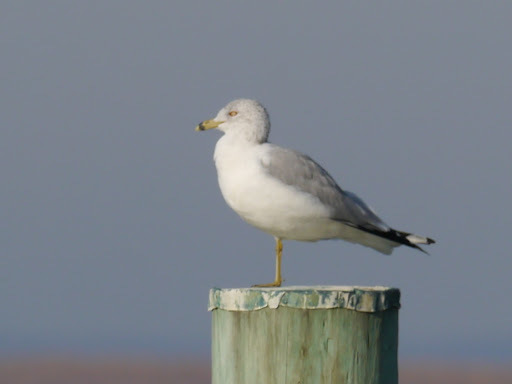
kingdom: Animalia
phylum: Chordata
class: Aves
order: Charadriiformes
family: Laridae
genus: Larus
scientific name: Larus delawarensis
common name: Ring-billed gull
